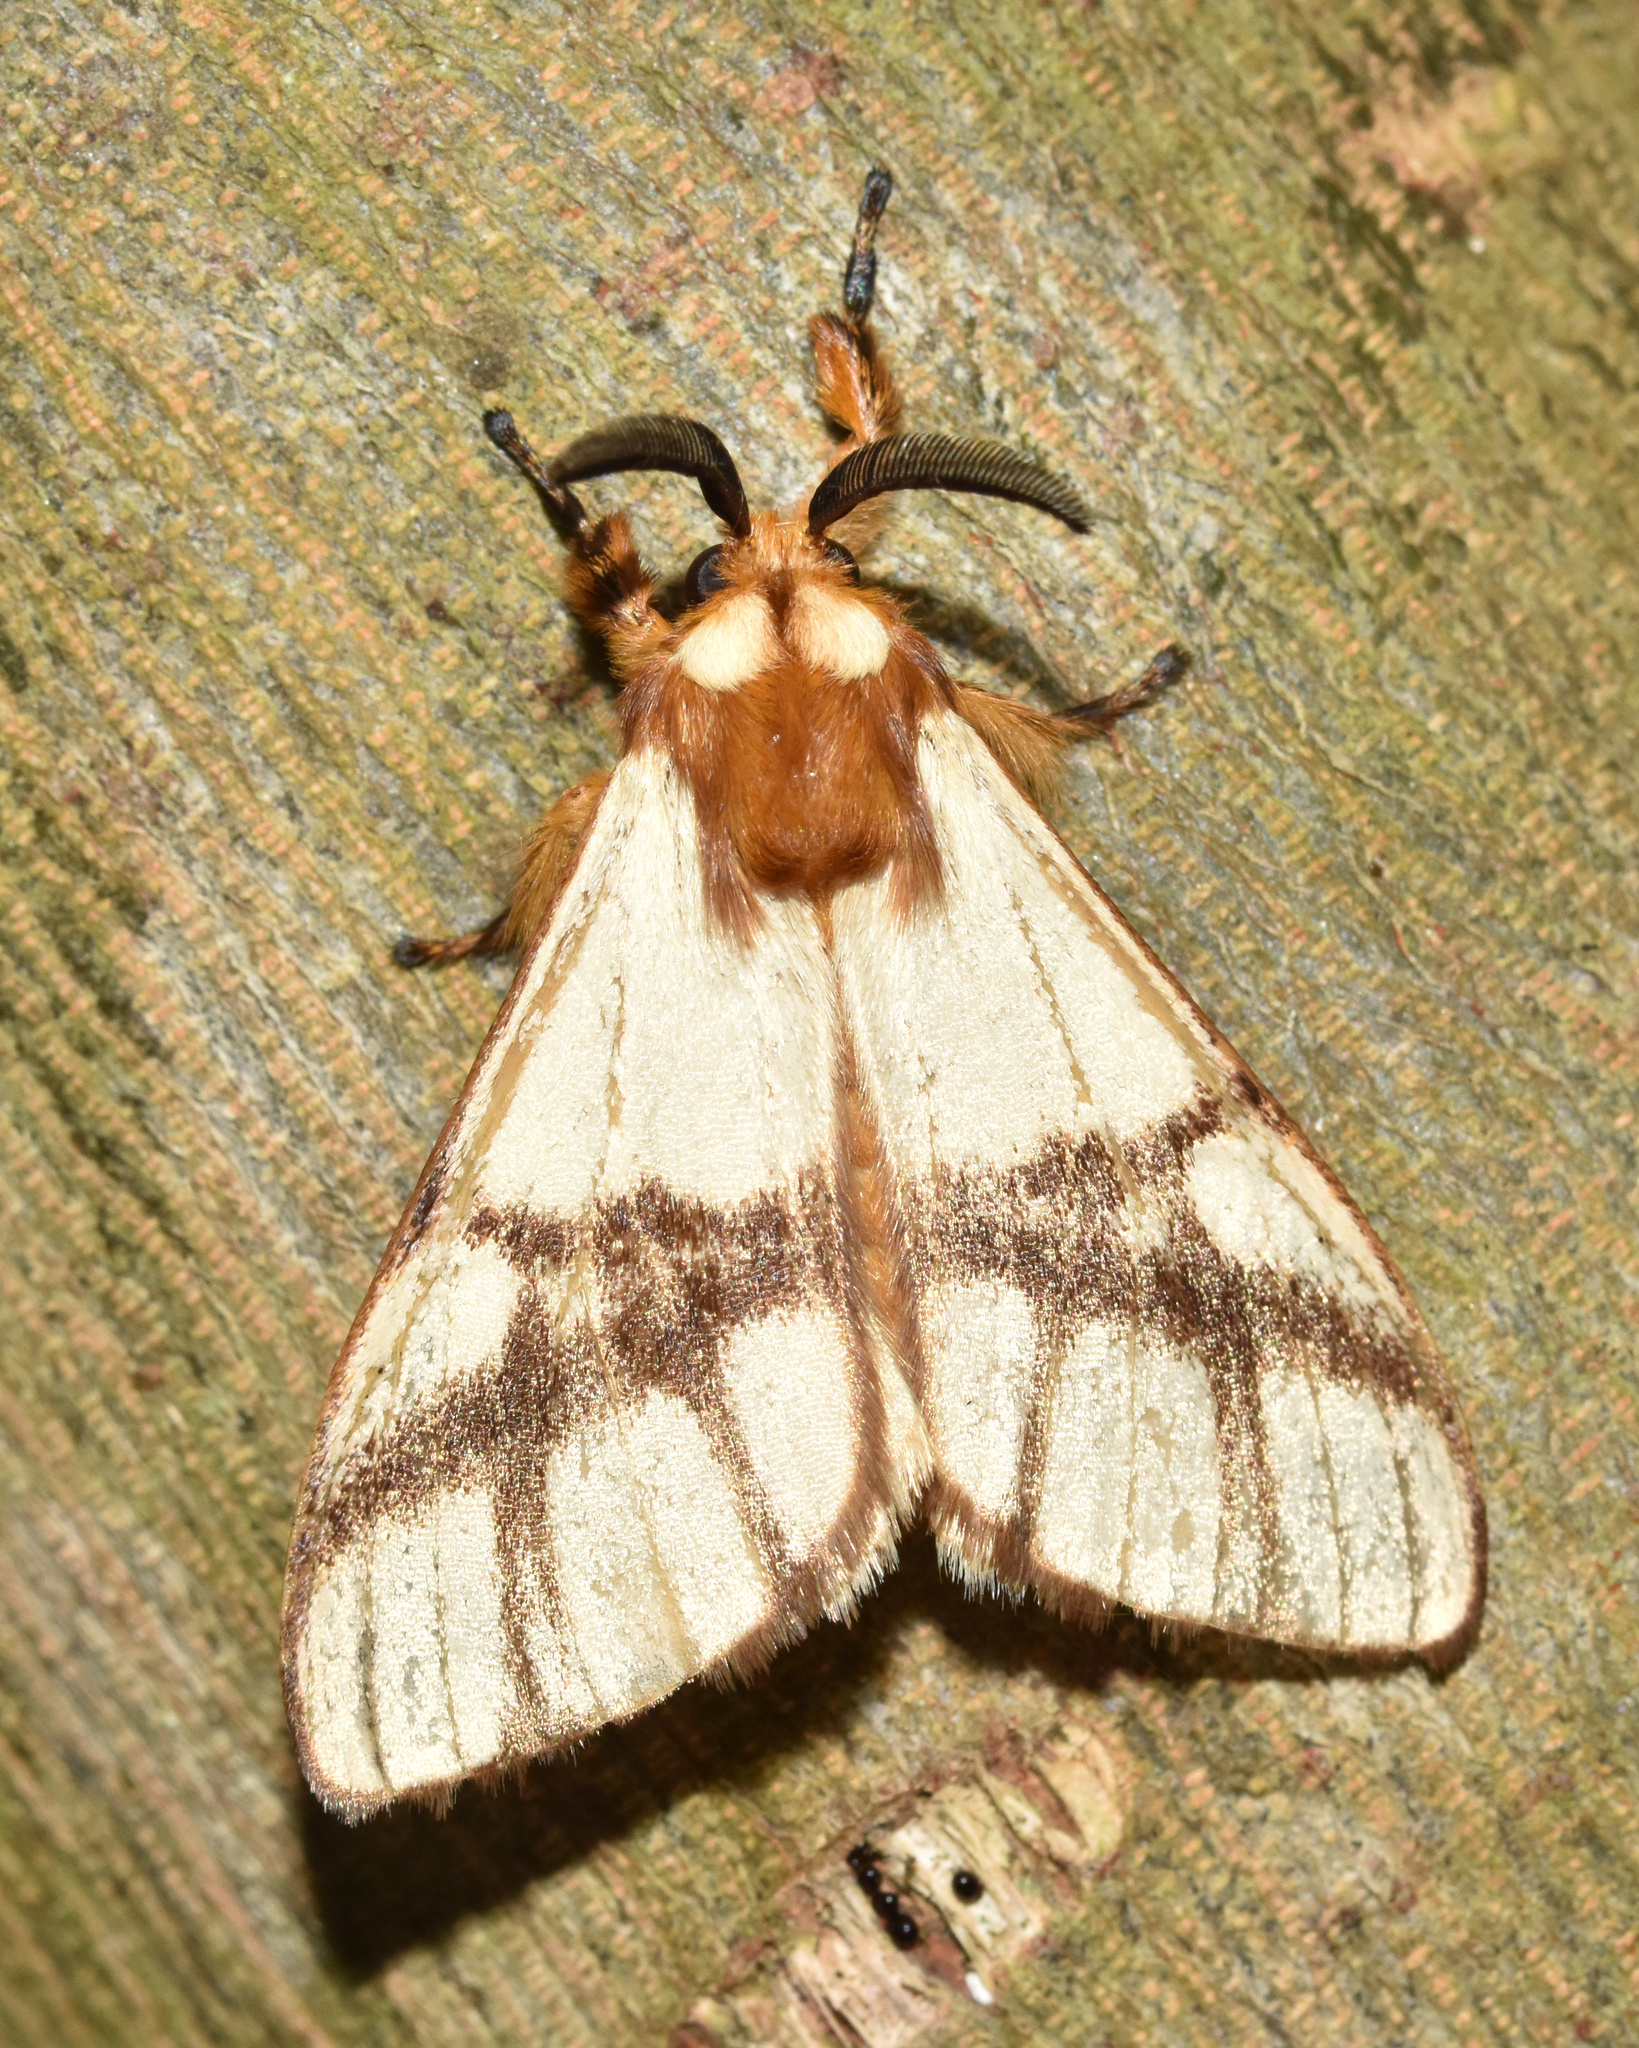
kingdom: Animalia
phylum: Arthropoda
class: Insecta
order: Lepidoptera
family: Notodontidae
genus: Anaphe
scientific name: Anaphe panda
